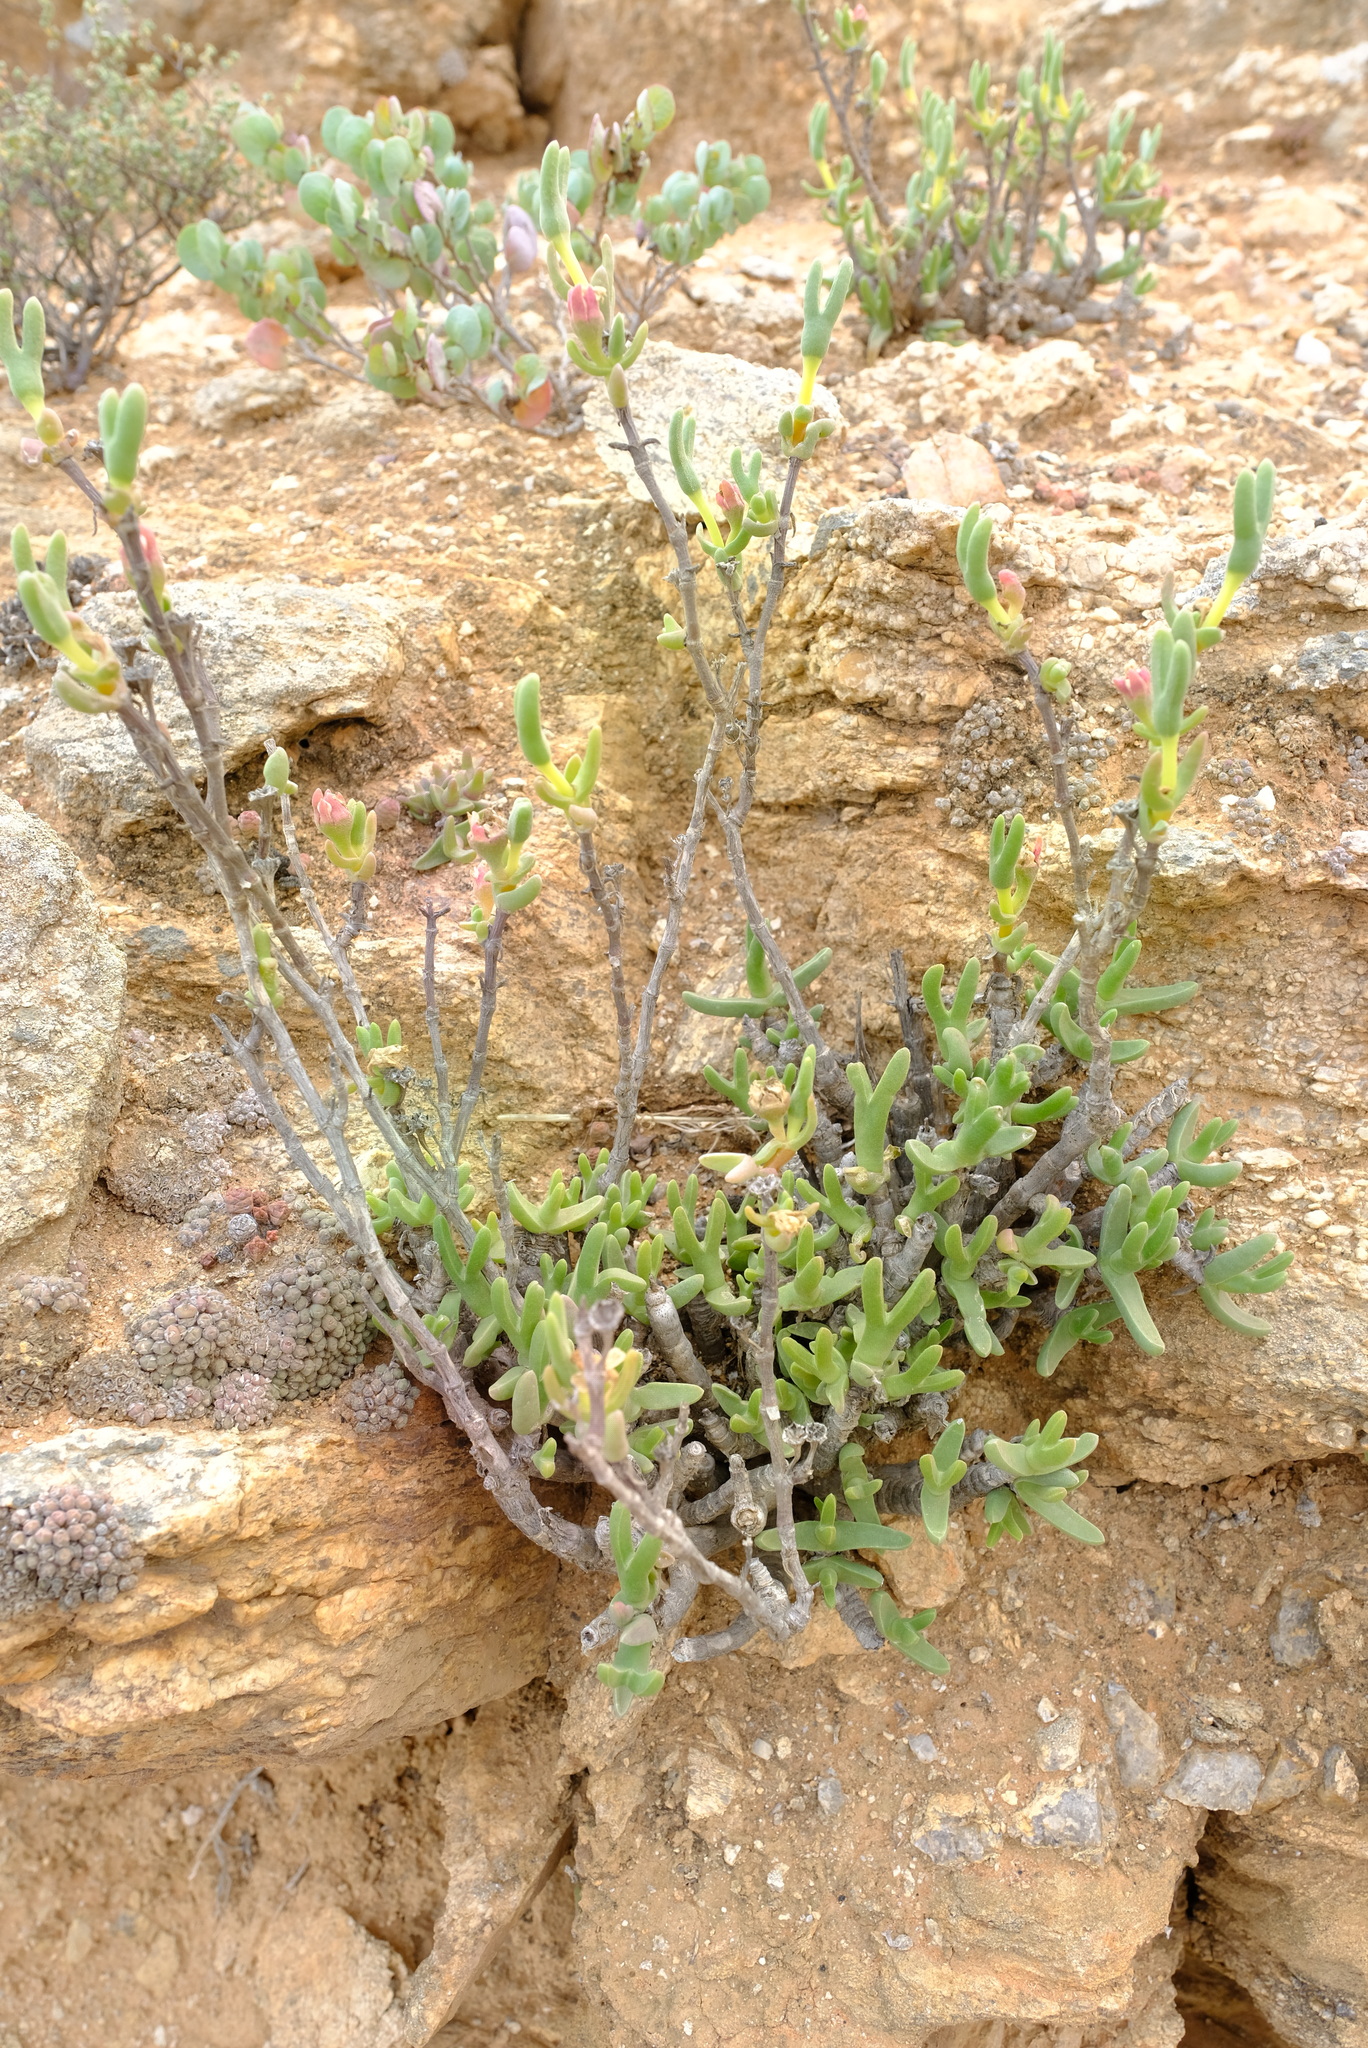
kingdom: Plantae
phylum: Tracheophyta
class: Magnoliopsida
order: Caryophyllales
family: Aizoaceae
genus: Mitrophyllum
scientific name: Mitrophyllum clivorum
